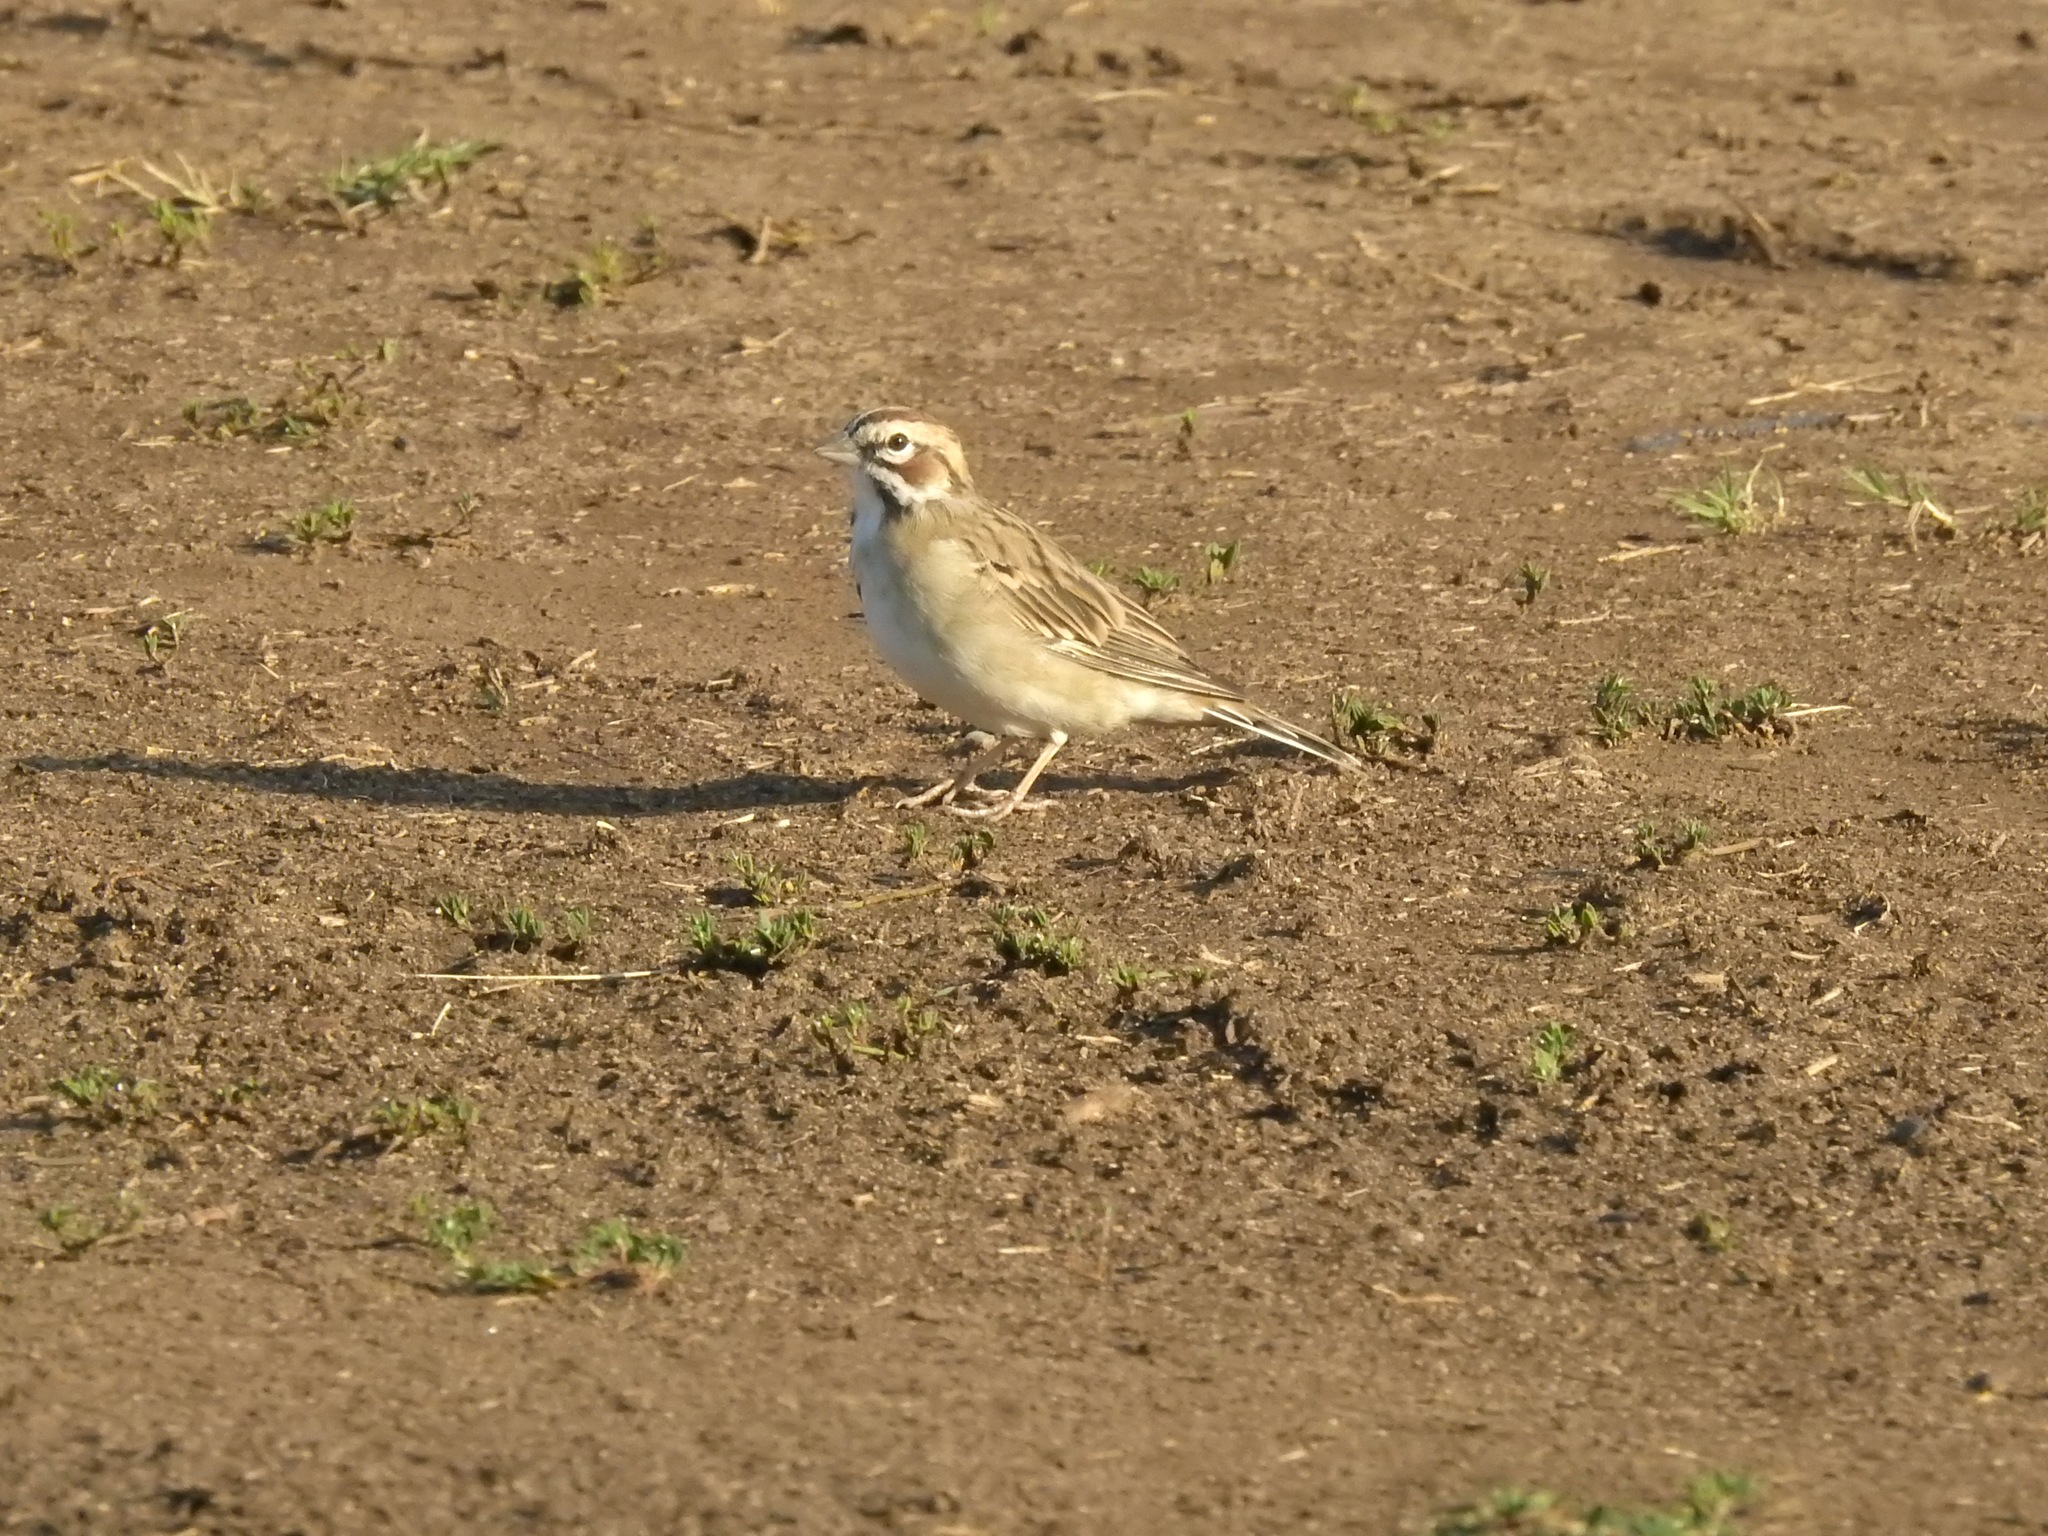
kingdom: Animalia
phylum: Chordata
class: Aves
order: Passeriformes
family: Passerellidae
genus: Chondestes
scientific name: Chondestes grammacus
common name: Lark sparrow
